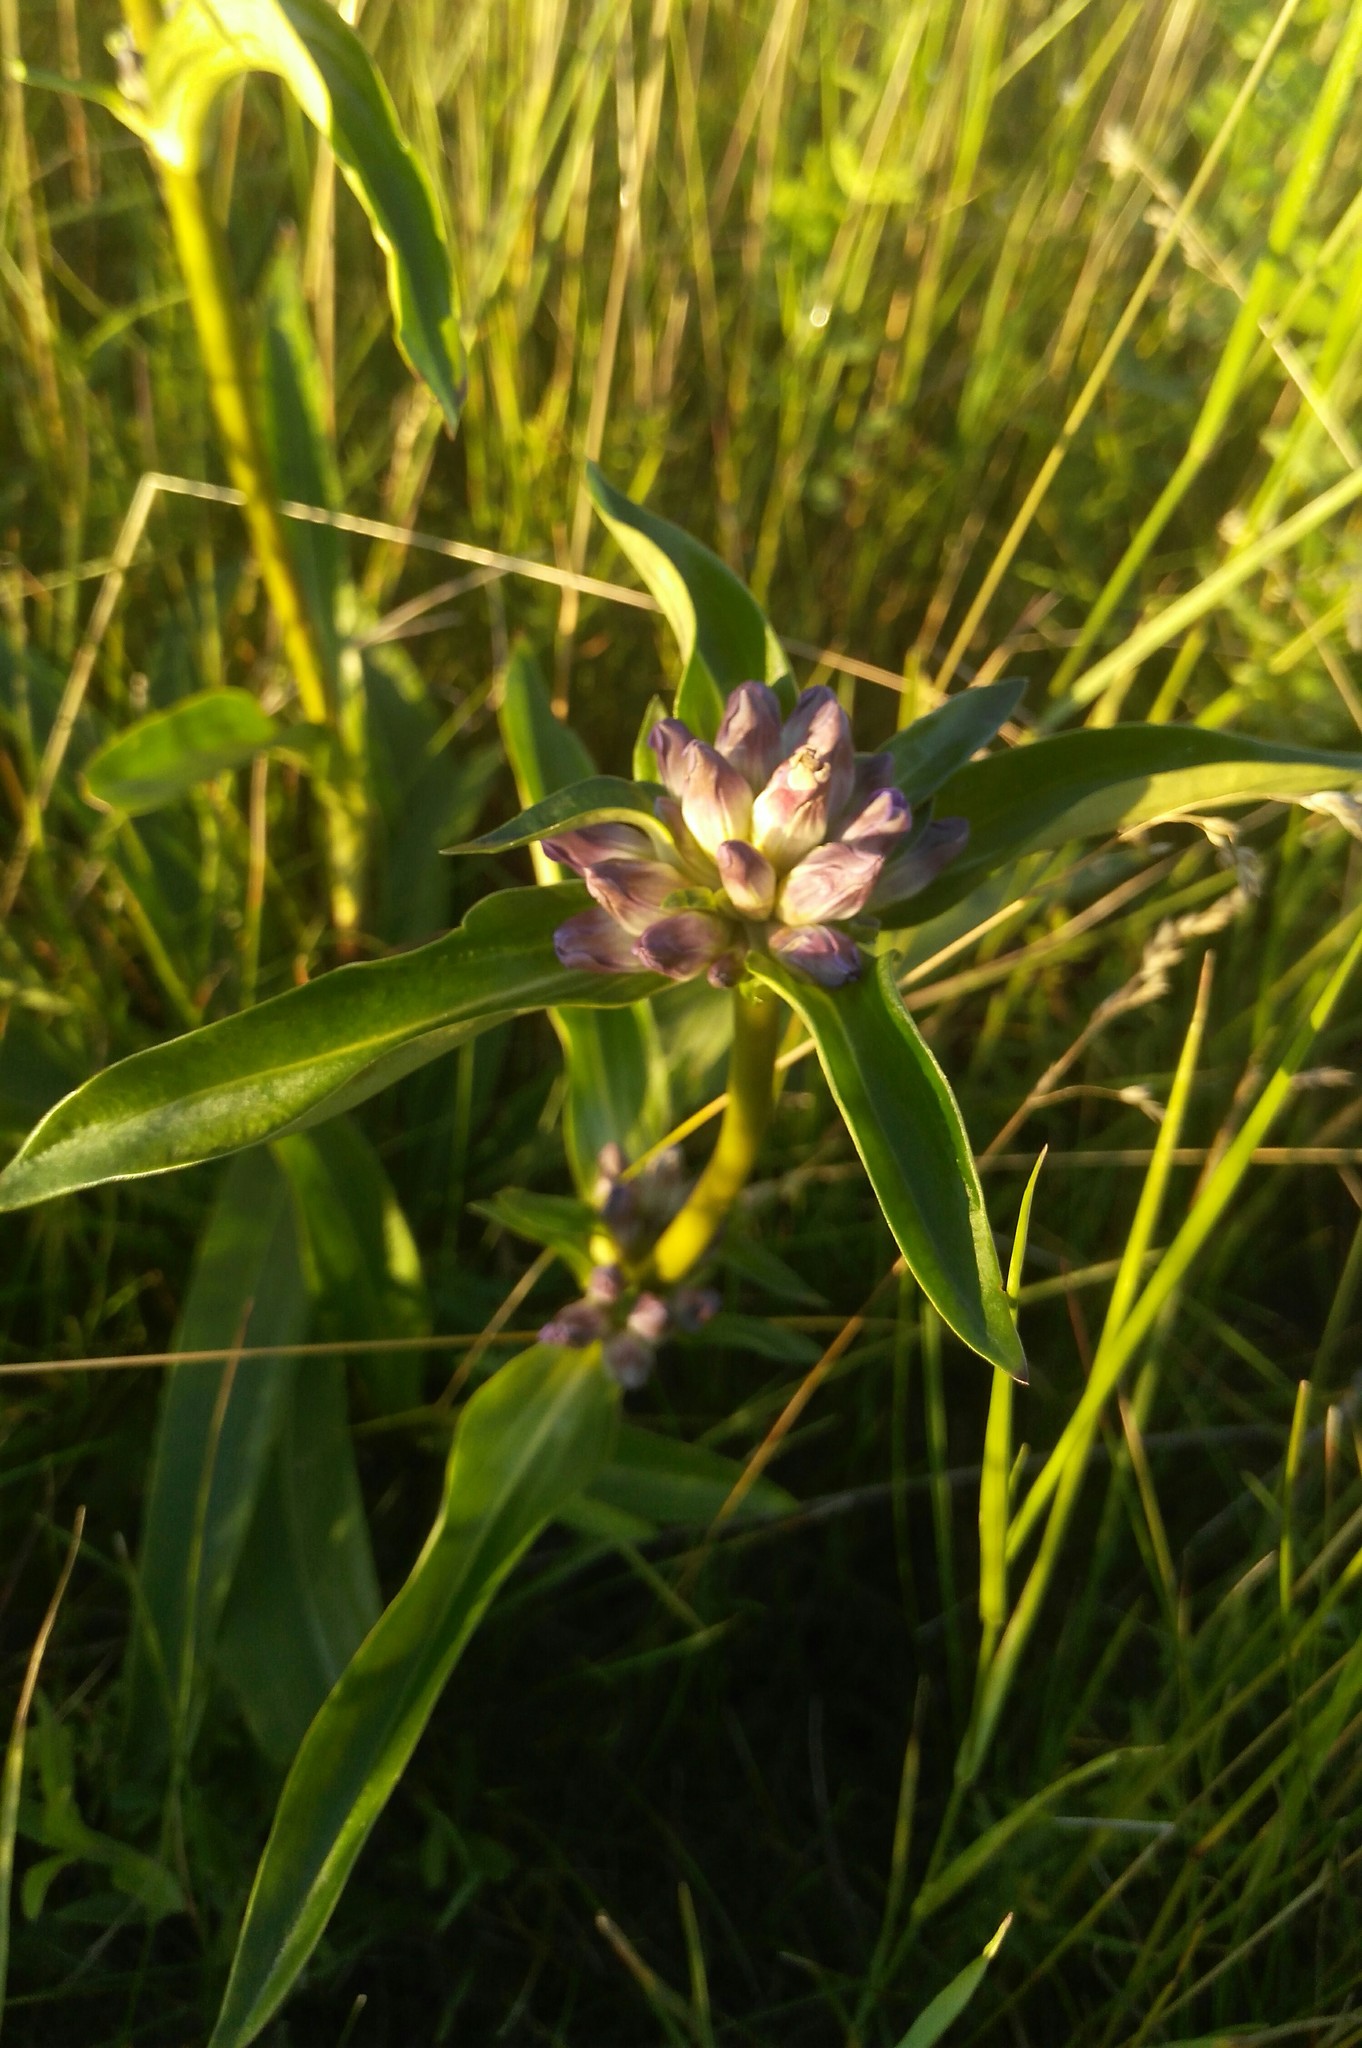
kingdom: Plantae
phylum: Tracheophyta
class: Magnoliopsida
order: Gentianales
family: Gentianaceae
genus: Gentiana
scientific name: Gentiana macrophylla
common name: Large-leaf gentian
